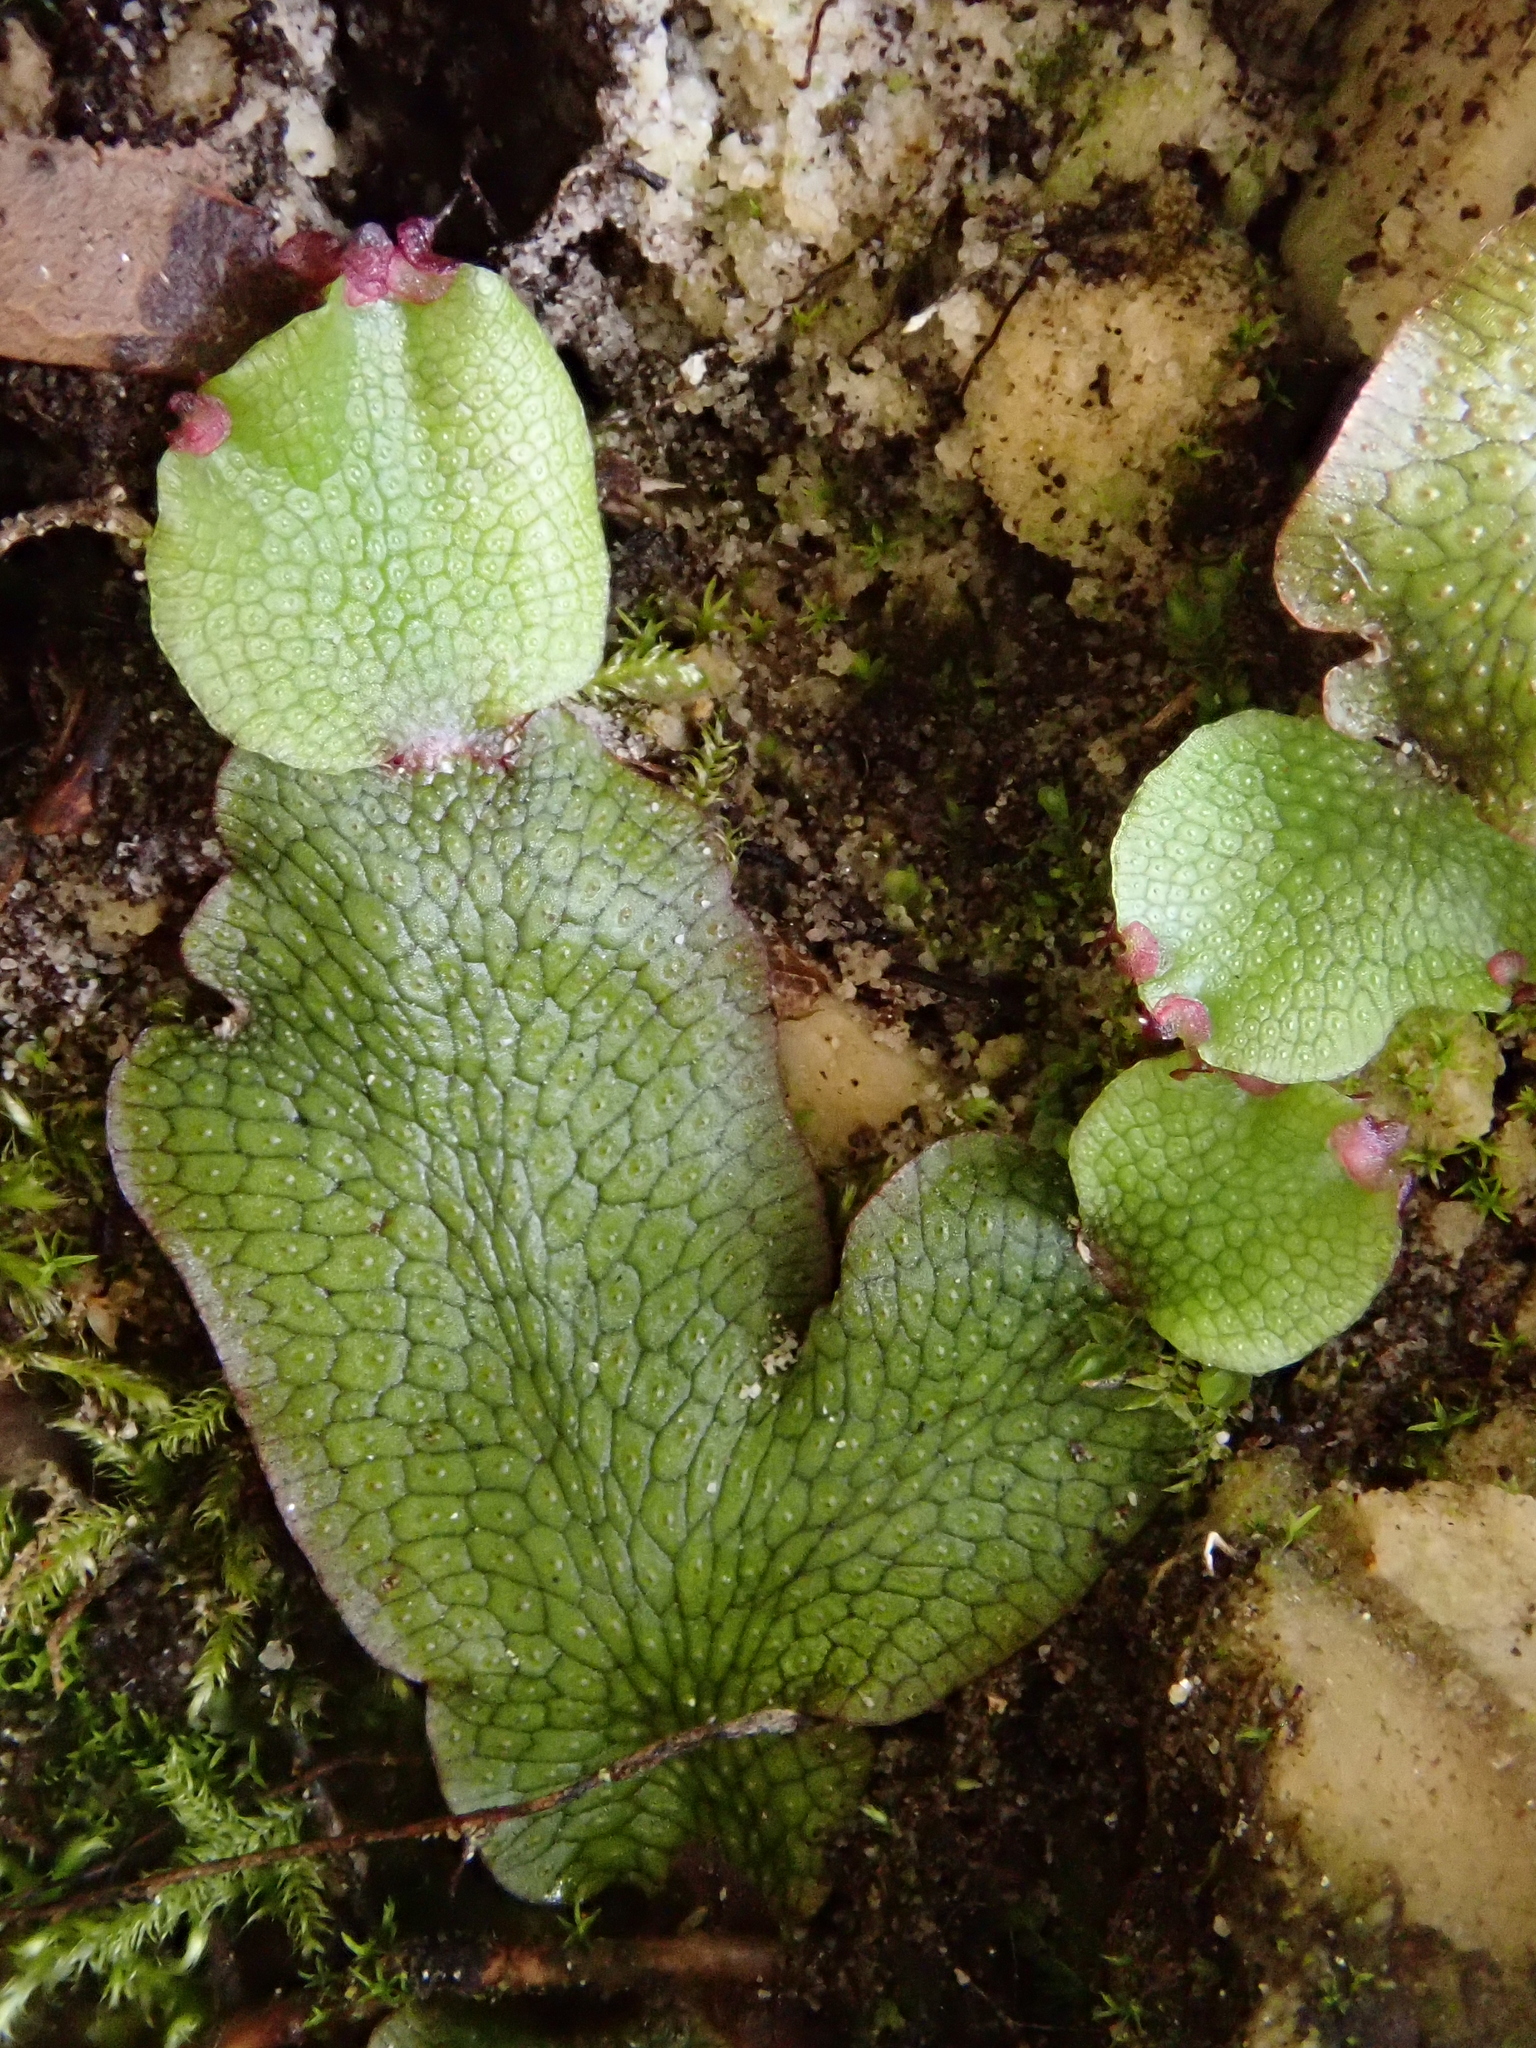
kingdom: Plantae
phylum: Marchantiophyta
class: Marchantiopsida
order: Marchantiales
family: Conocephalaceae
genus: Conocephalum
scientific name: Conocephalum salebrosum
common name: Cat-tongue liverwort
